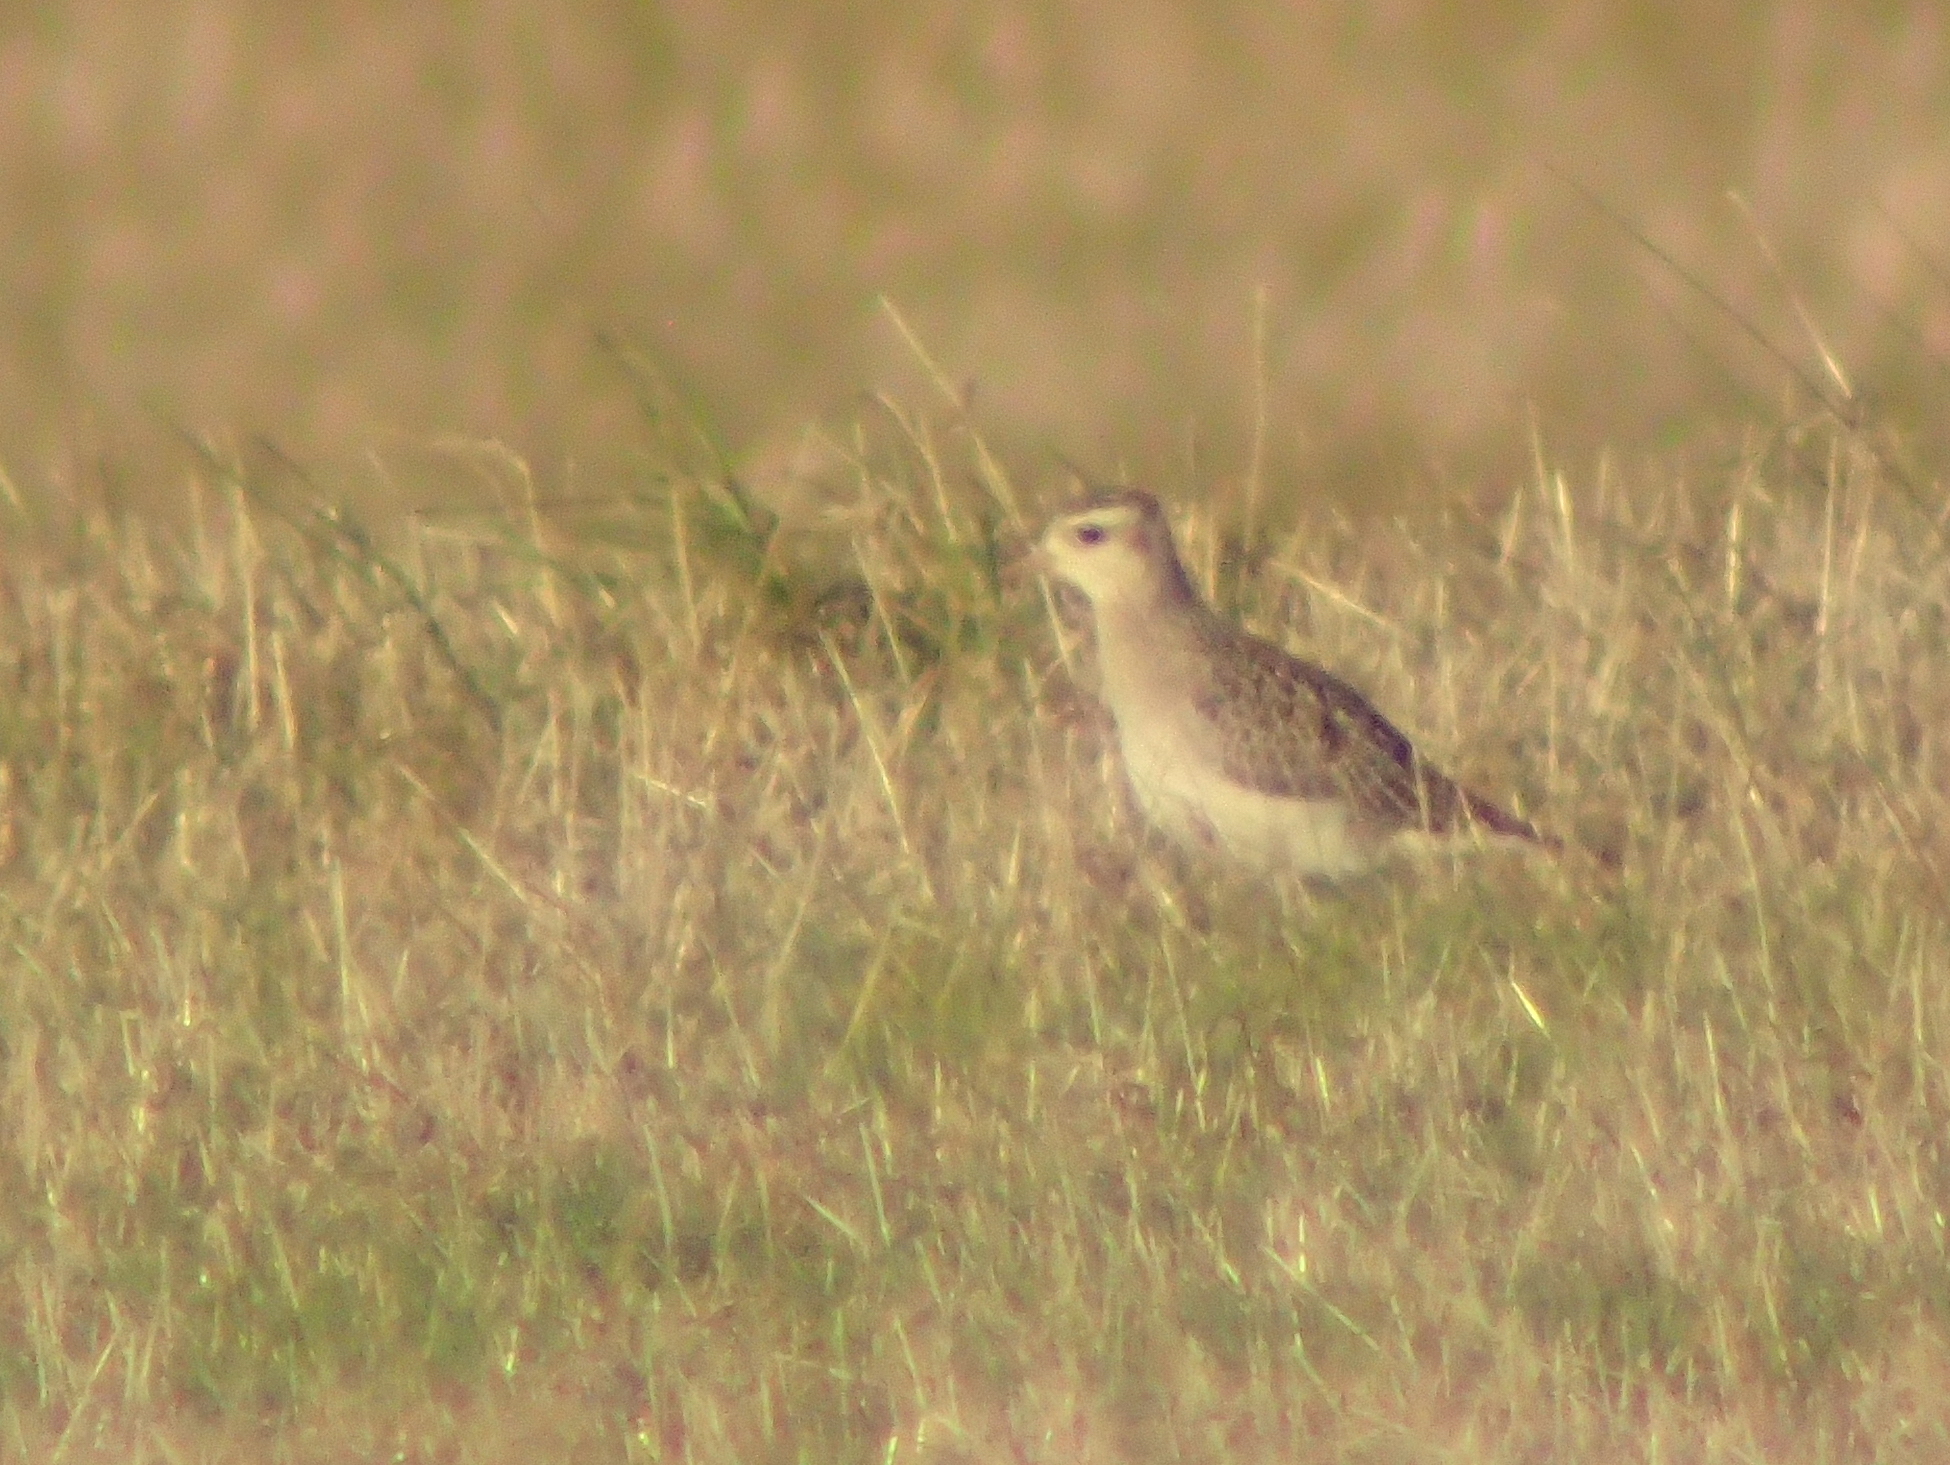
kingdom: Animalia
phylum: Chordata
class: Aves
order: Charadriiformes
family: Charadriidae
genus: Pluvialis
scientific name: Pluvialis dominica
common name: American golden plover
